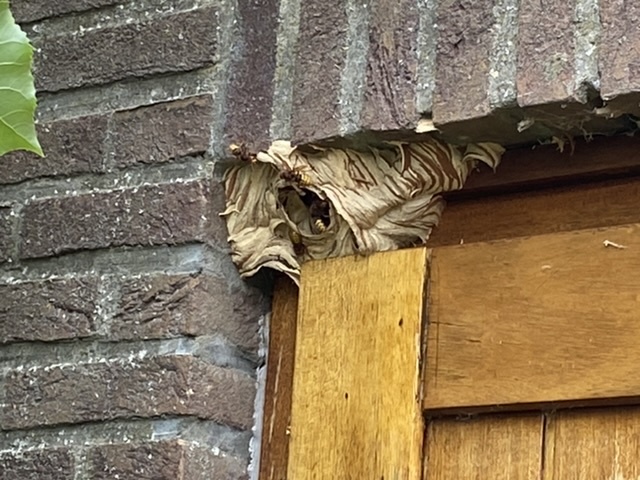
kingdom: Animalia
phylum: Arthropoda
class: Insecta
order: Hymenoptera
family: Vespidae
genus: Vespa
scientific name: Vespa crabro
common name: Hornet
